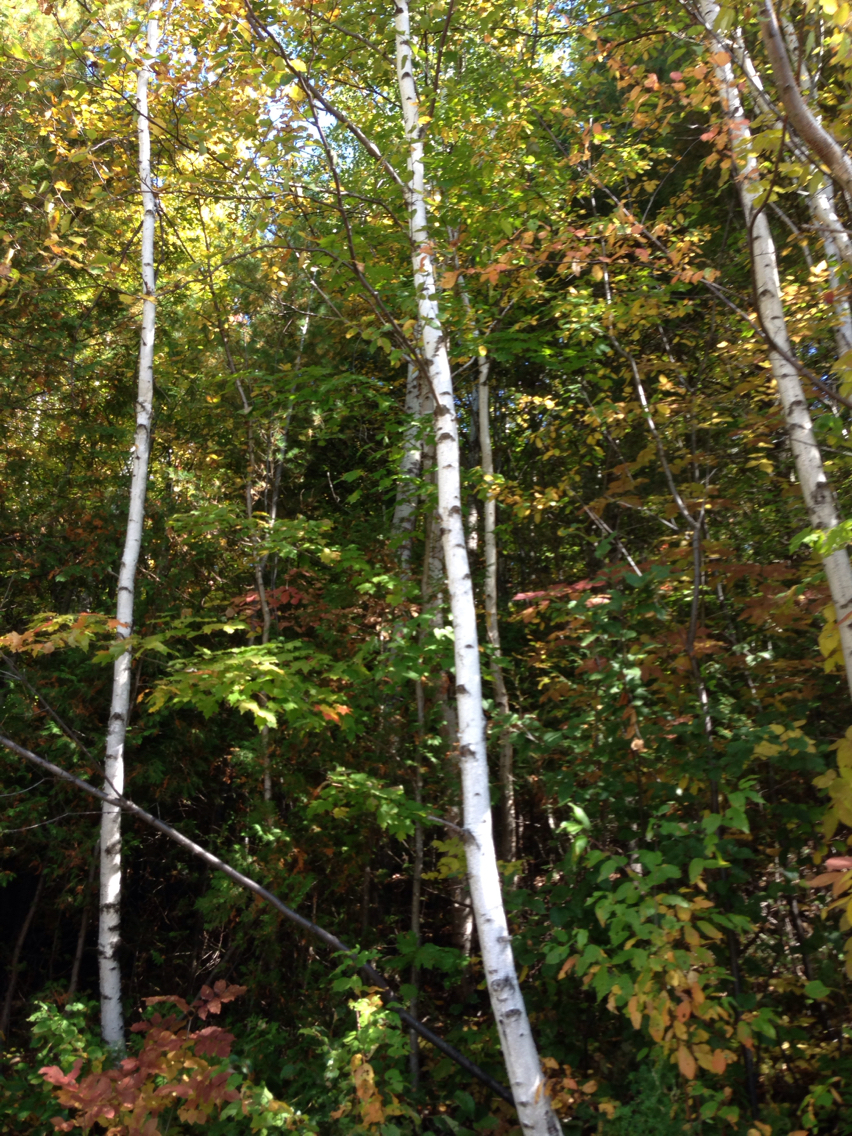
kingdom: Plantae
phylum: Tracheophyta
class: Magnoliopsida
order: Fagales
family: Betulaceae
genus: Betula
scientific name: Betula papyrifera
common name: Paper birch
